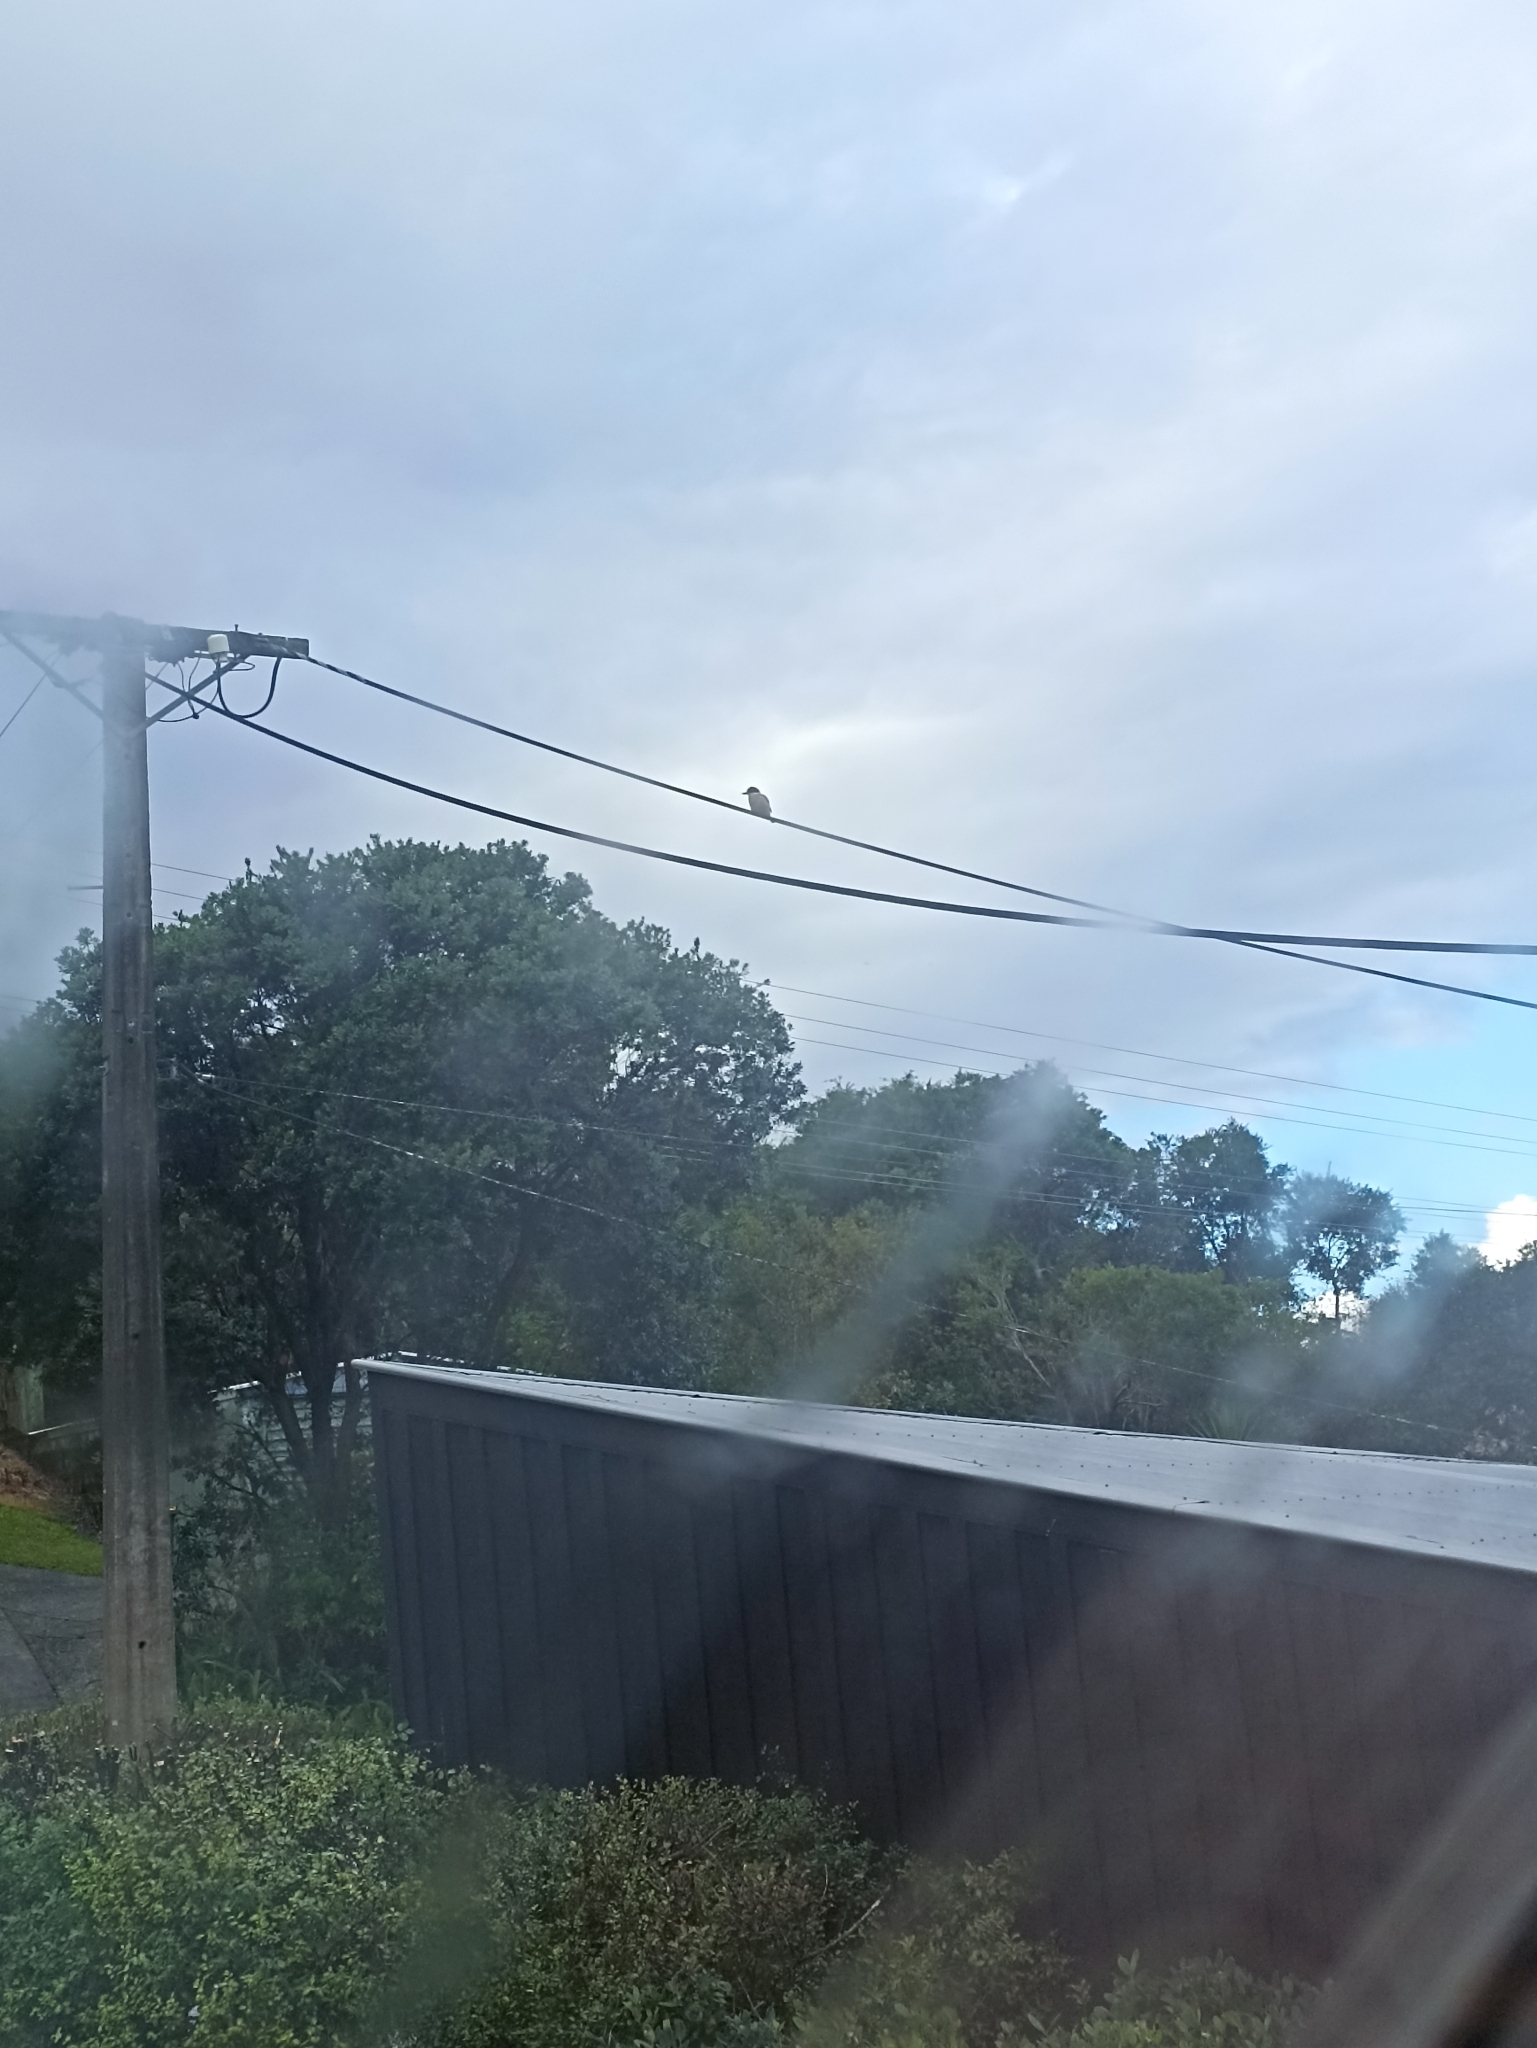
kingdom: Animalia
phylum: Chordata
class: Aves
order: Coraciiformes
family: Alcedinidae
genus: Todiramphus
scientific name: Todiramphus sanctus
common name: Sacred kingfisher
